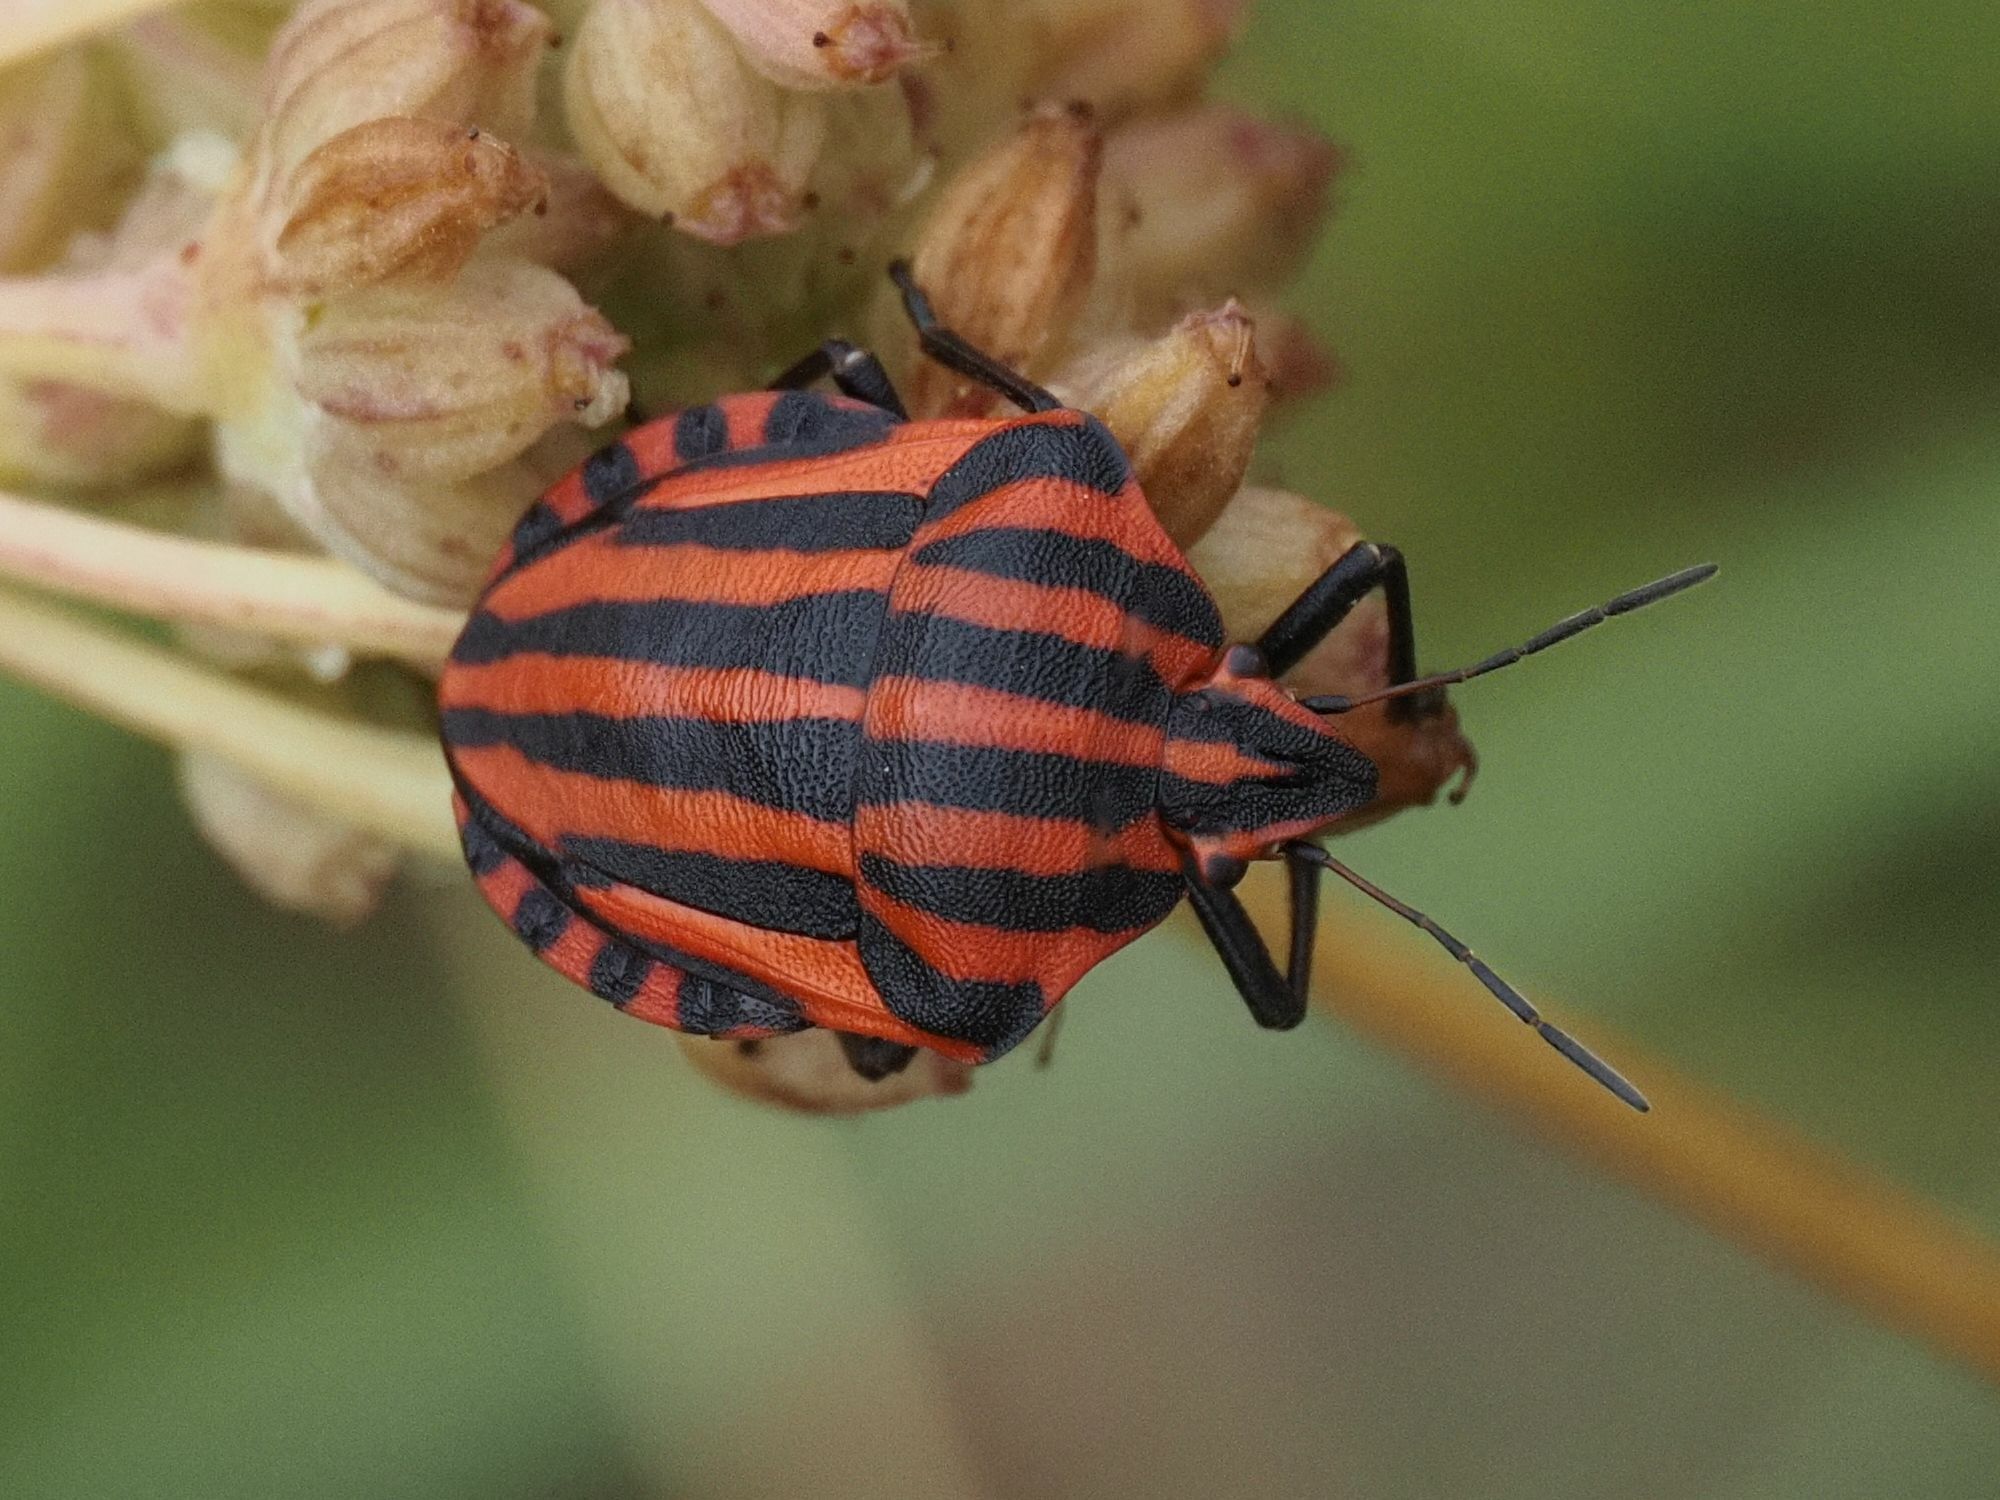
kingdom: Animalia
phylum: Arthropoda
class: Insecta
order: Hemiptera
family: Pentatomidae
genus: Graphosoma
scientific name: Graphosoma italicum
